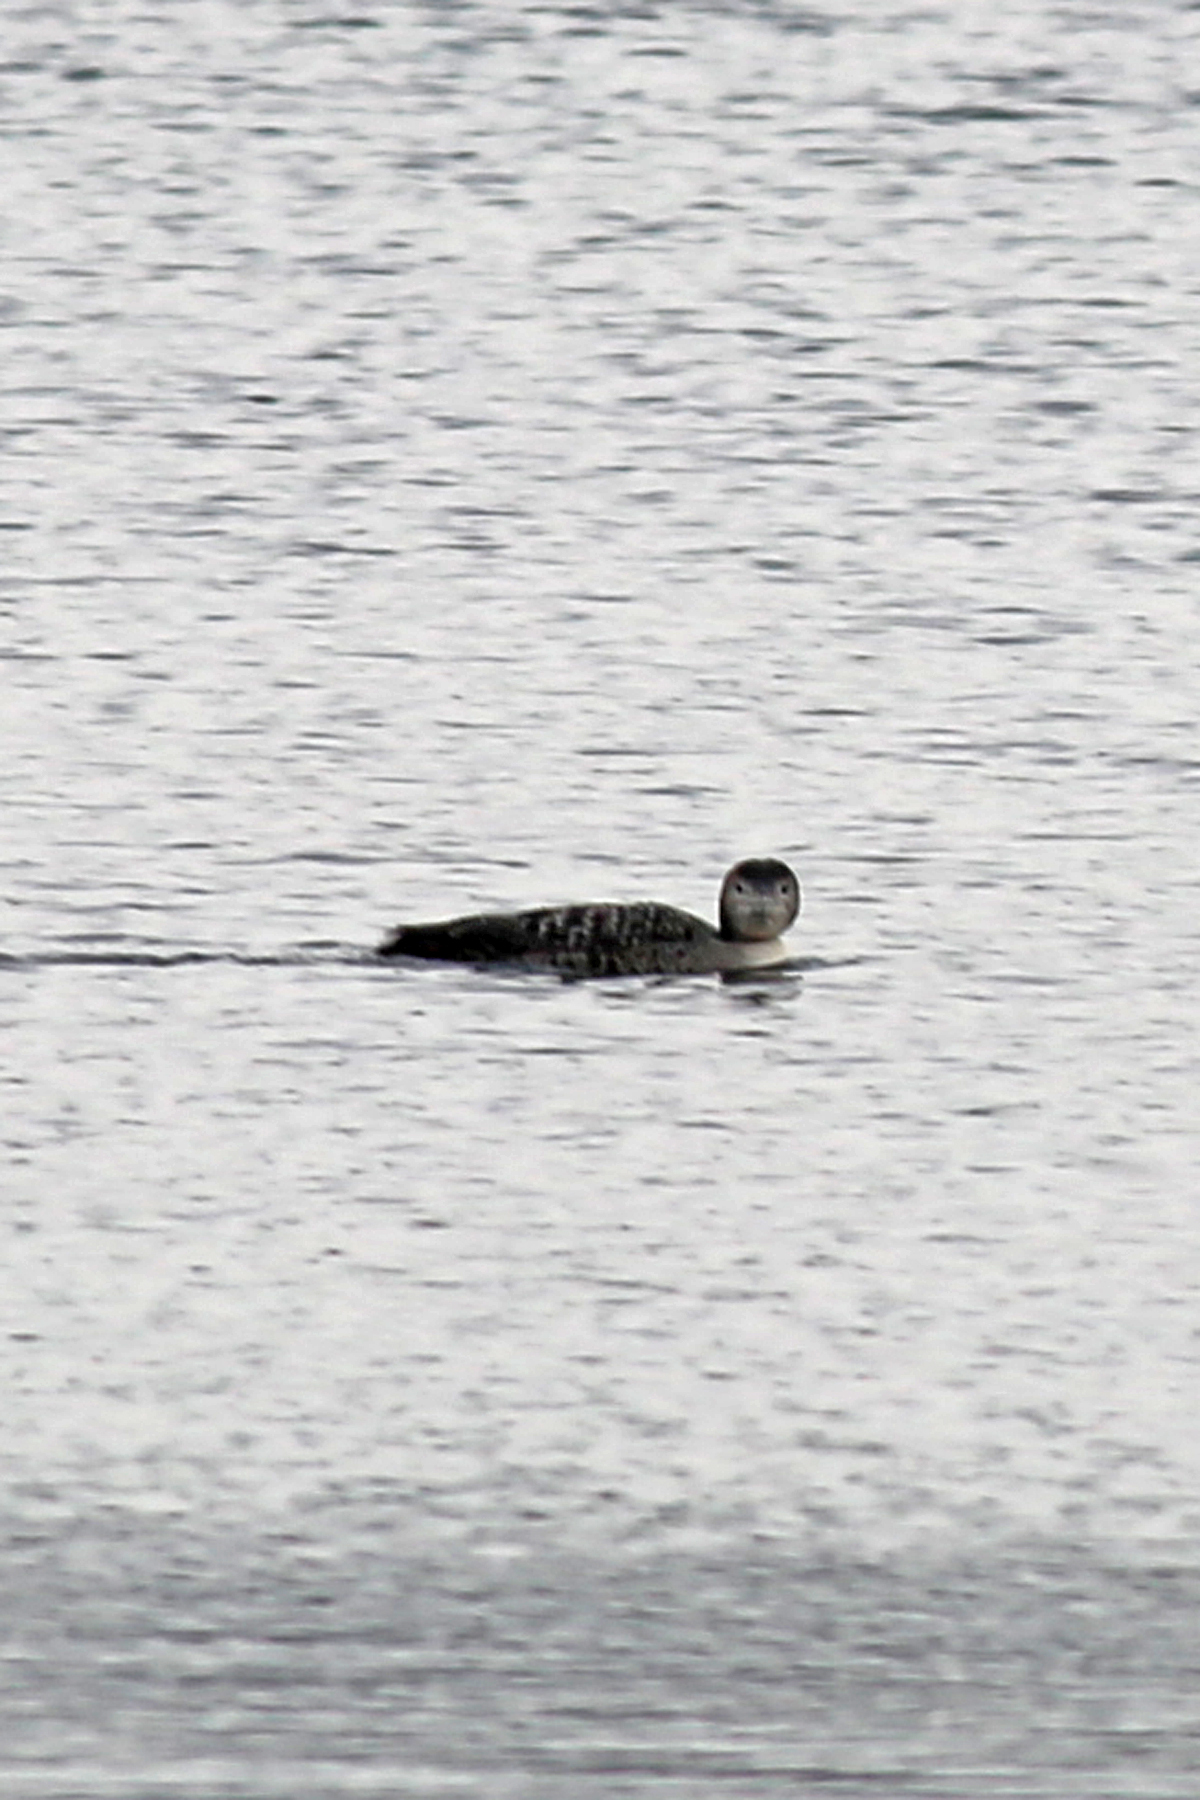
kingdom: Animalia
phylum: Chordata
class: Aves
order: Gaviiformes
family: Gaviidae
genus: Gavia
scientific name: Gavia immer
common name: Common loon
